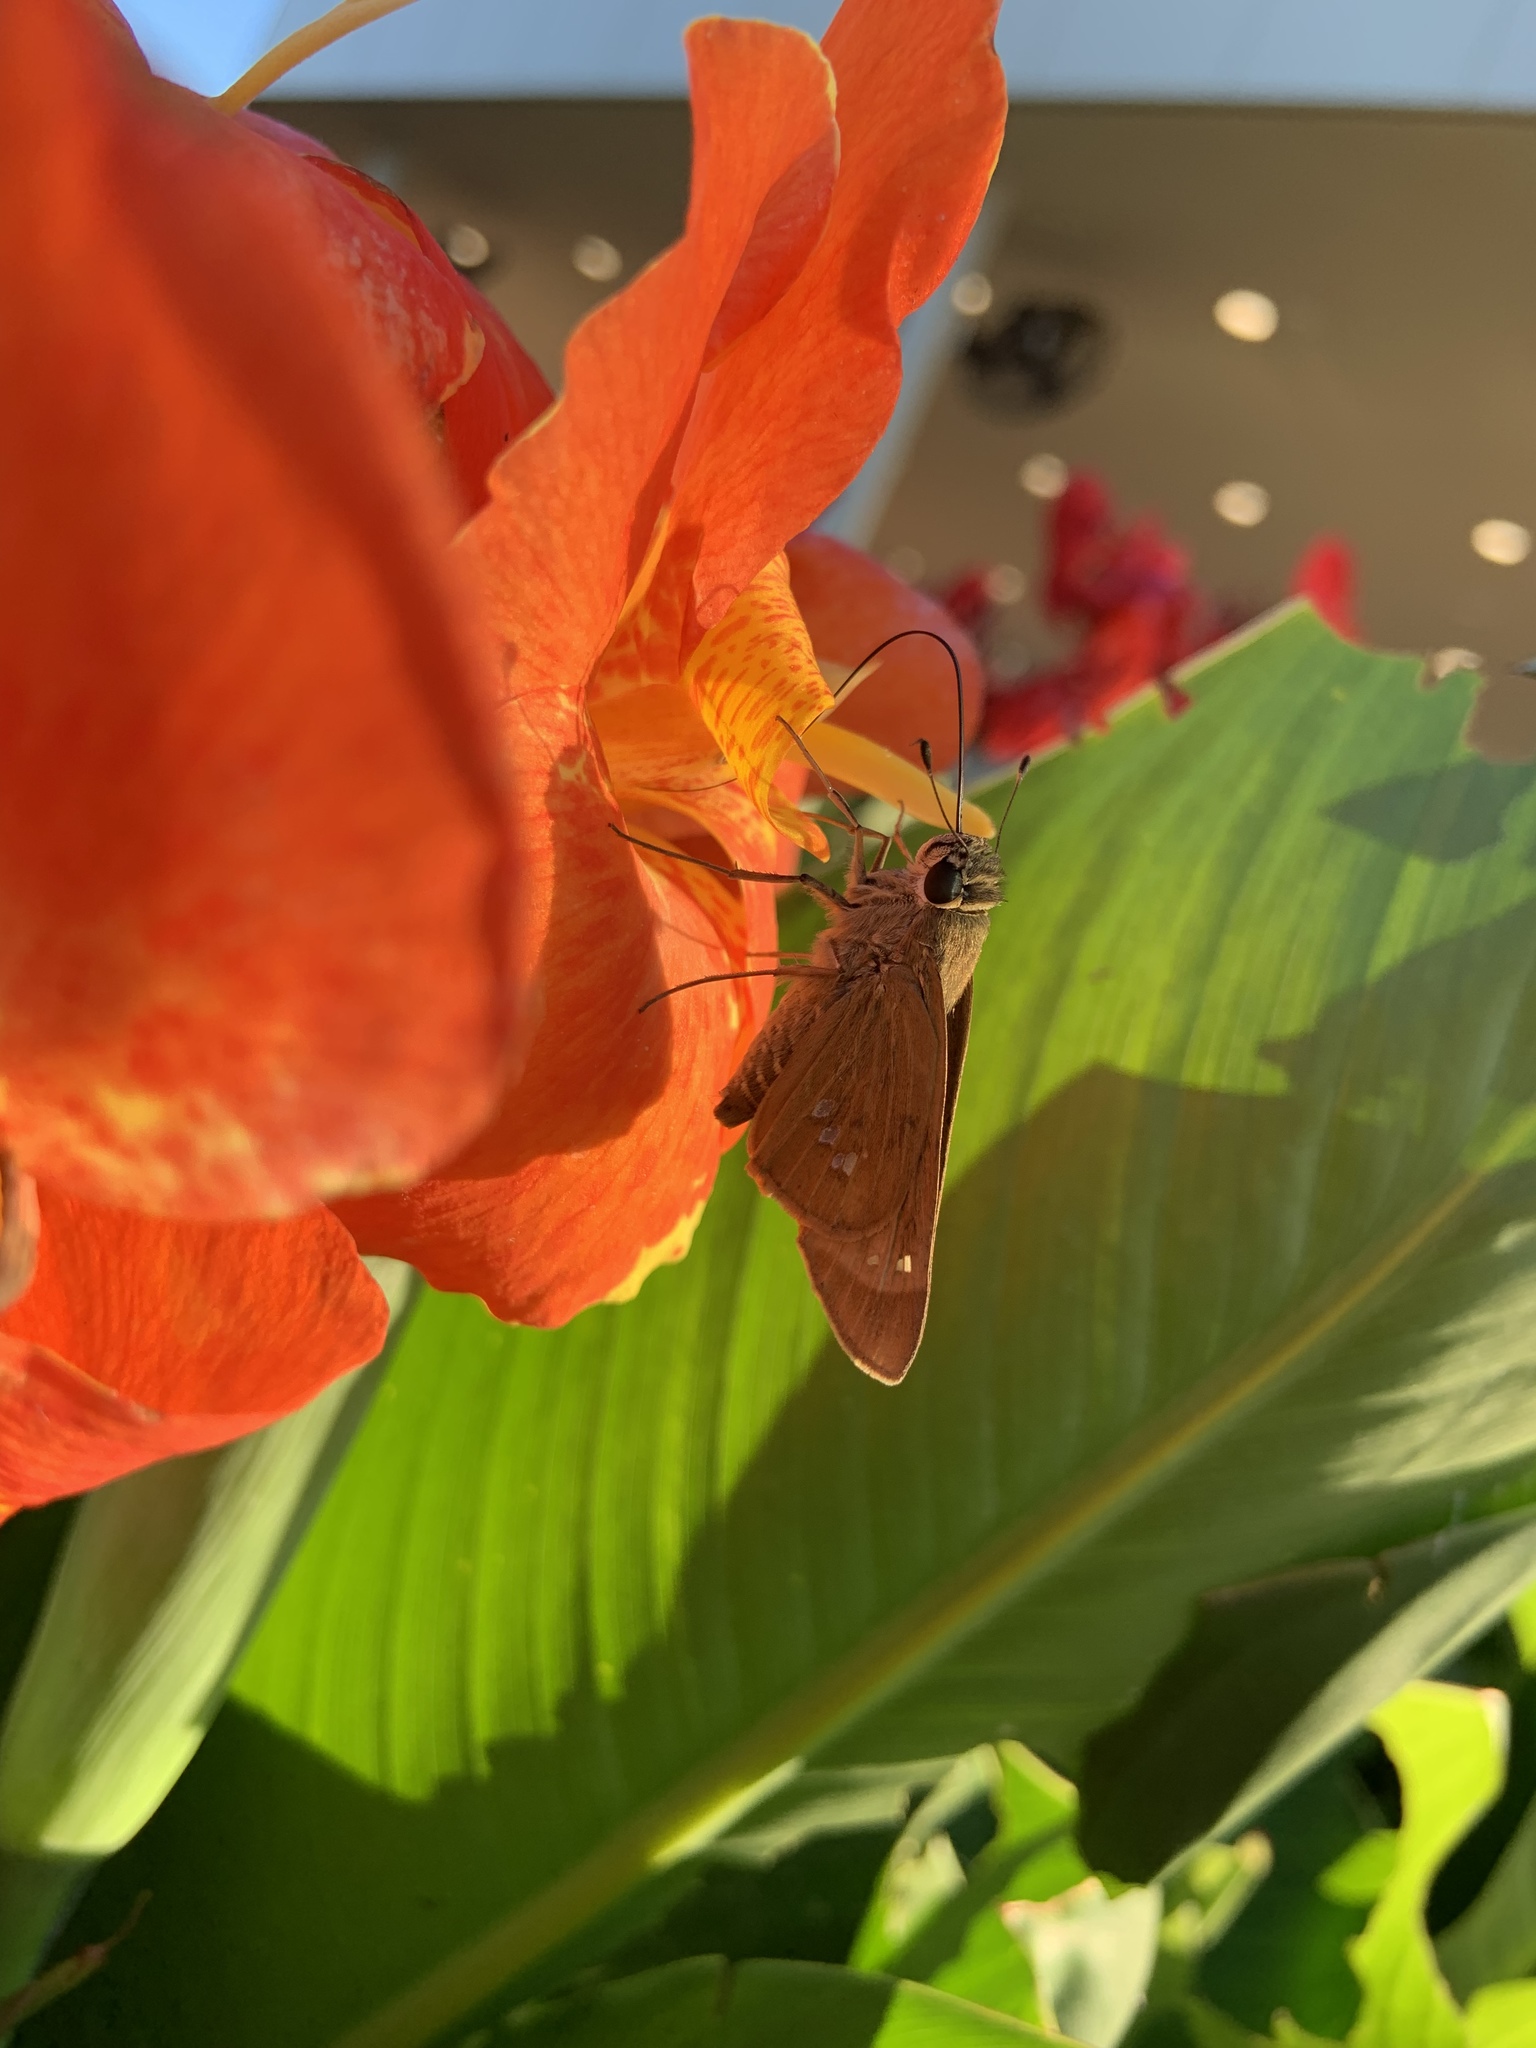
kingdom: Animalia
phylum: Arthropoda
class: Insecta
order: Lepidoptera
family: Hesperiidae
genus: Calpodes
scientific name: Calpodes ethlius
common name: Brazilian skipper
